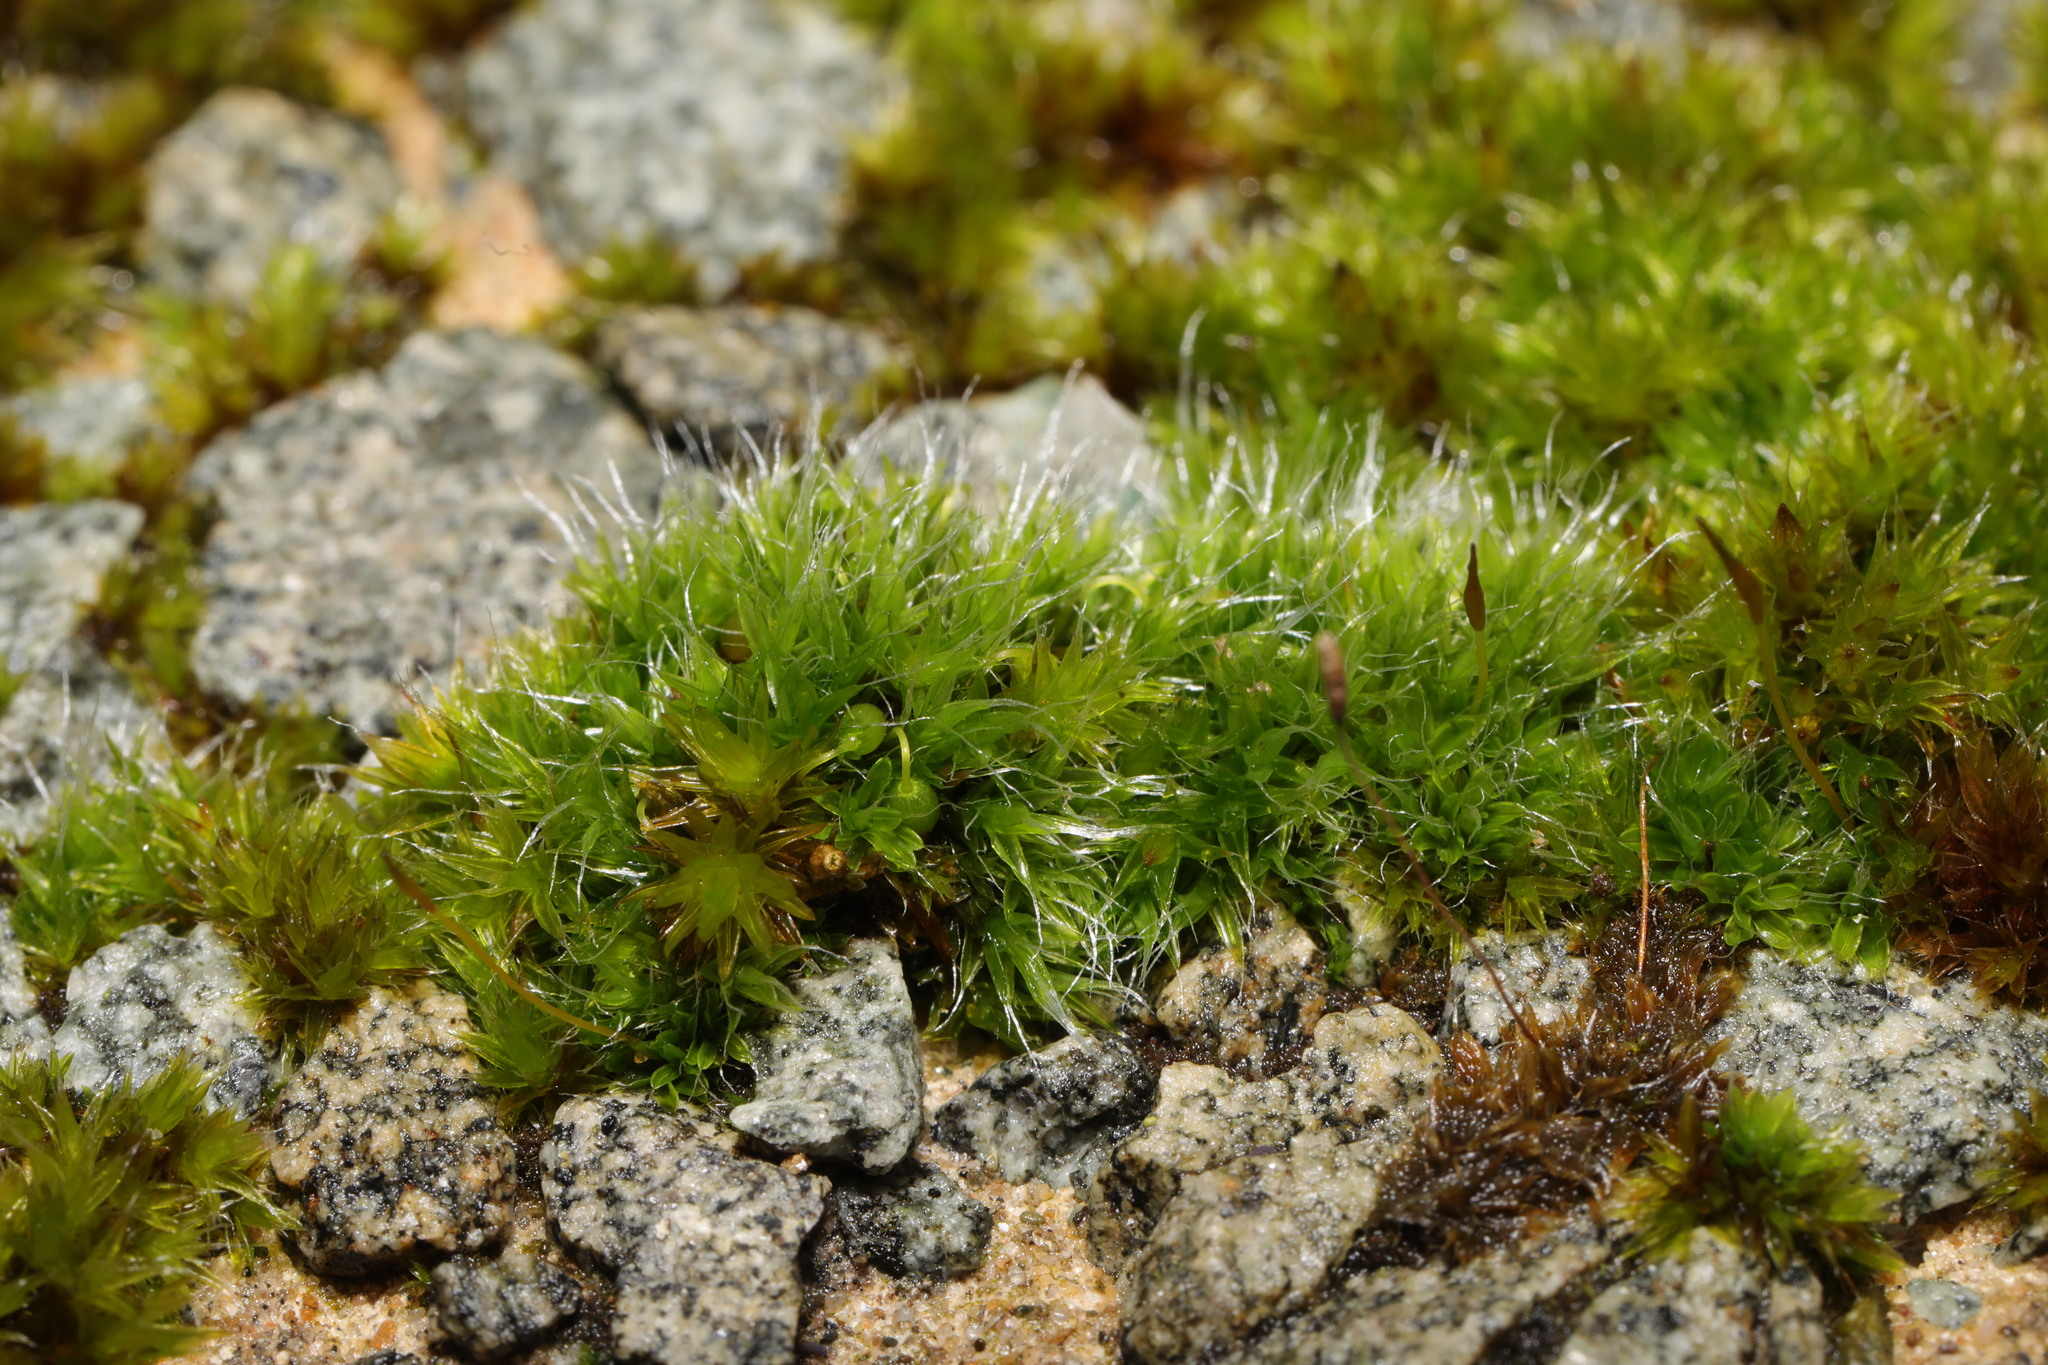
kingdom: Plantae
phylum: Bryophyta
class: Bryopsida
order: Grimmiales
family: Grimmiaceae
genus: Grimmia
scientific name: Grimmia pulvinata
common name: Grey-cushioned grimmia
